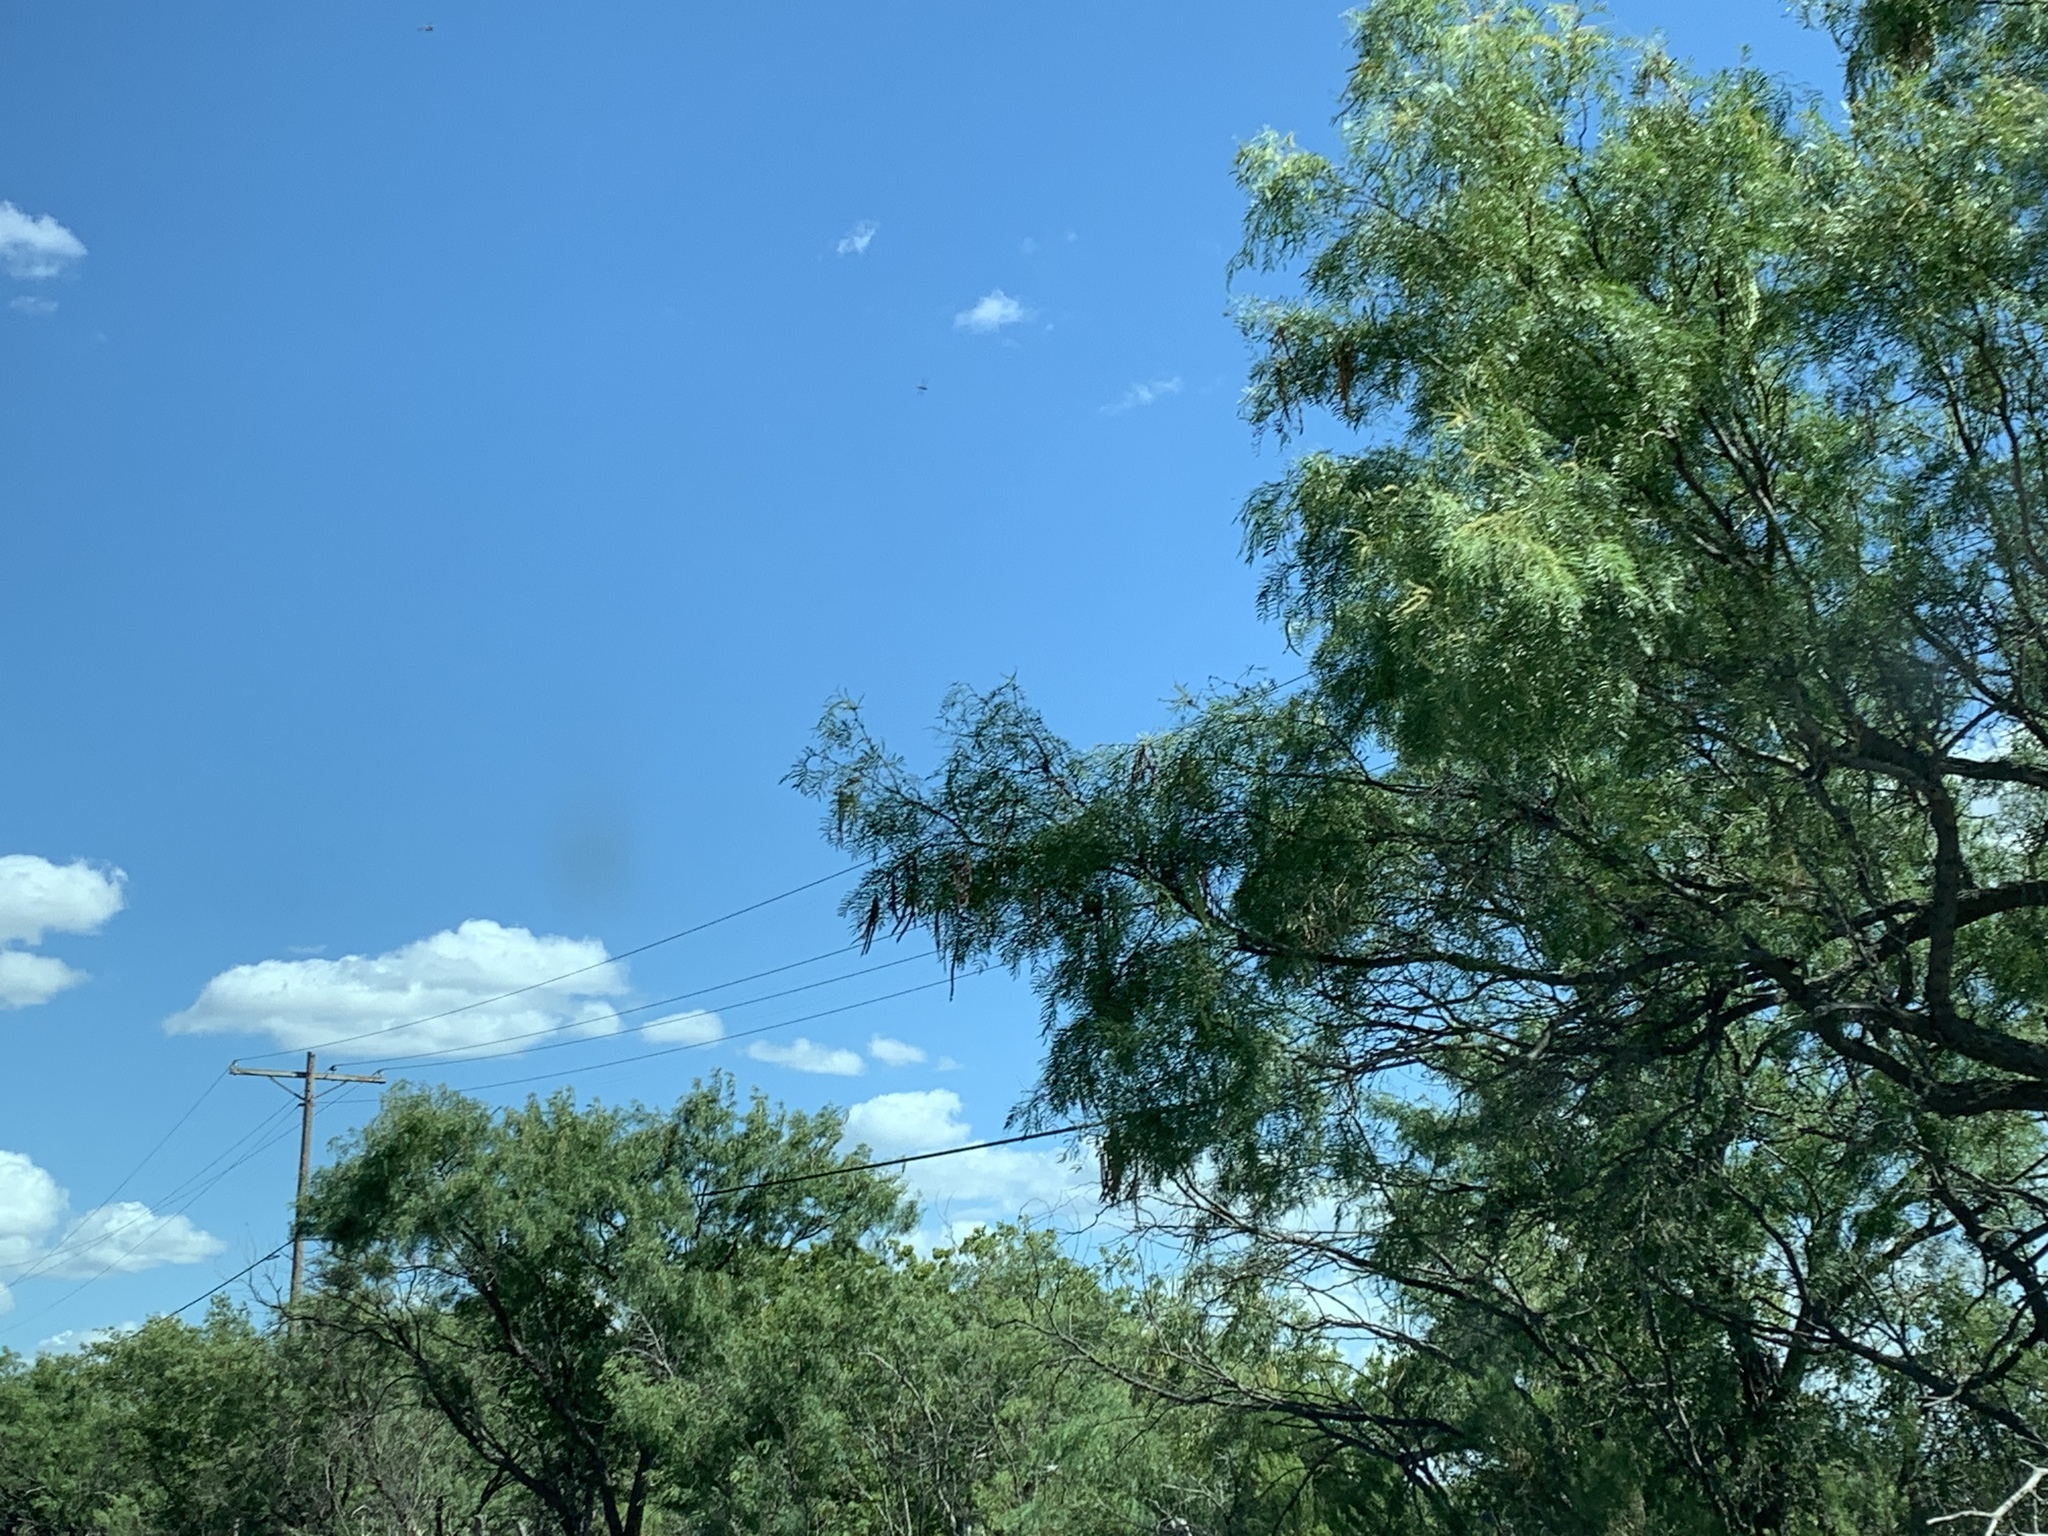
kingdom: Plantae
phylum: Tracheophyta
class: Magnoliopsida
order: Fabales
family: Fabaceae
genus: Prosopis
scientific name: Prosopis glandulosa
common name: Honey mesquite
